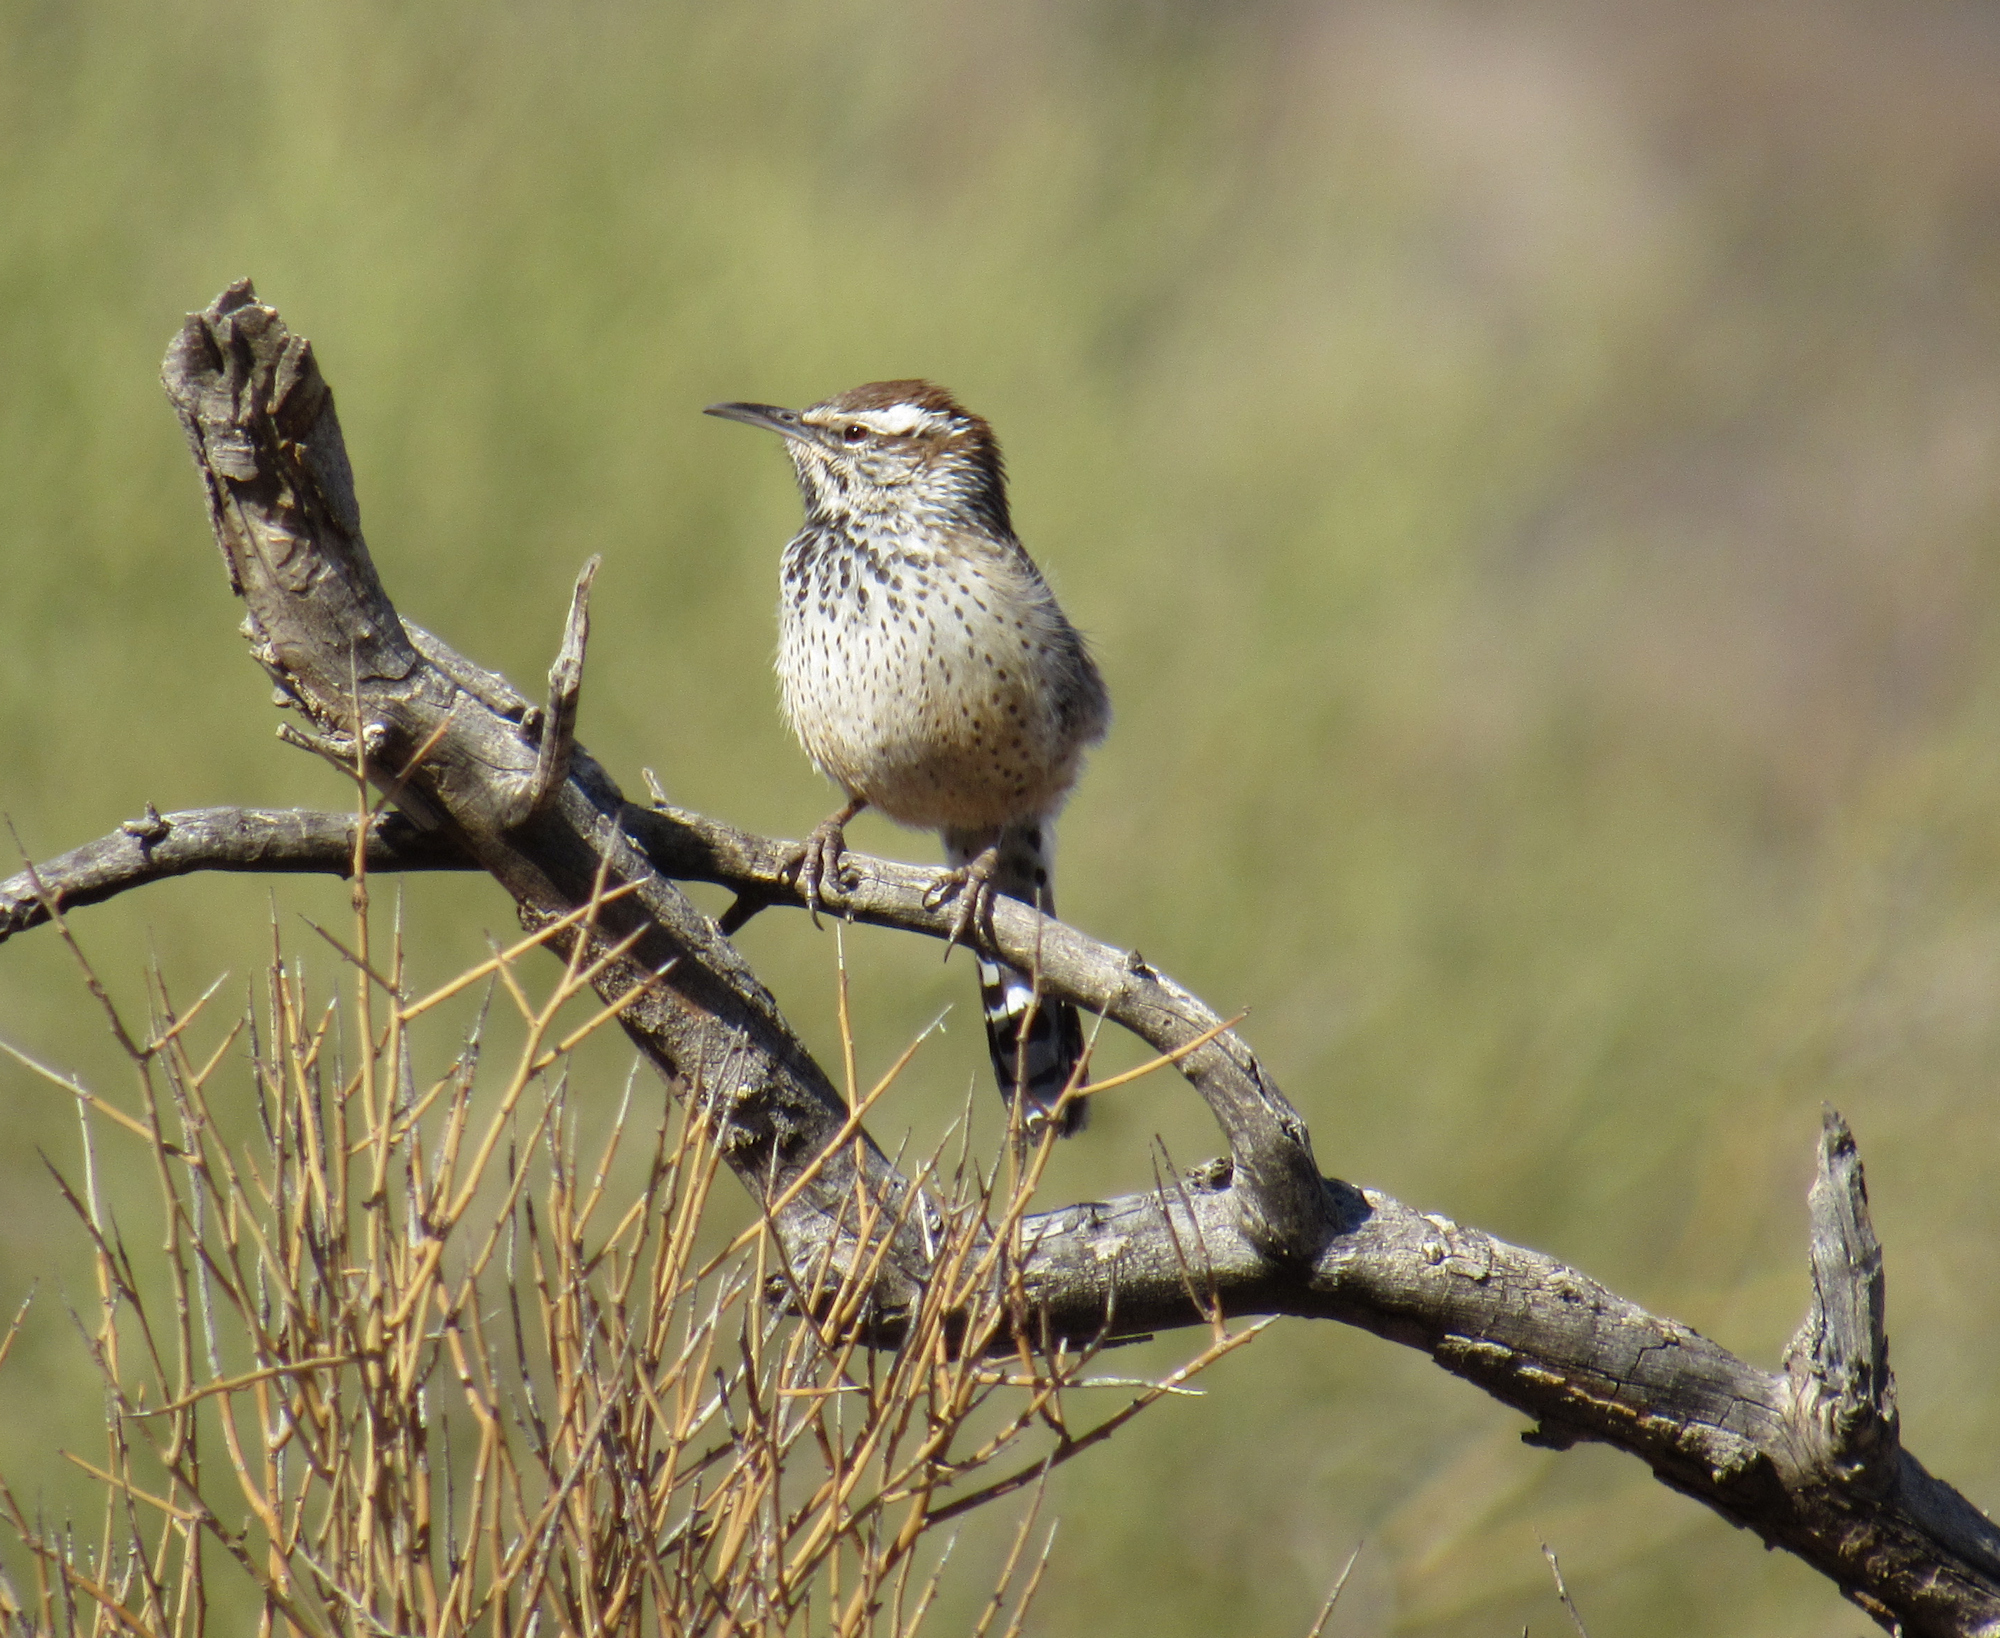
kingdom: Animalia
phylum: Chordata
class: Aves
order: Passeriformes
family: Troglodytidae
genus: Campylorhynchus
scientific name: Campylorhynchus brunneicapillus
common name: Cactus wren
